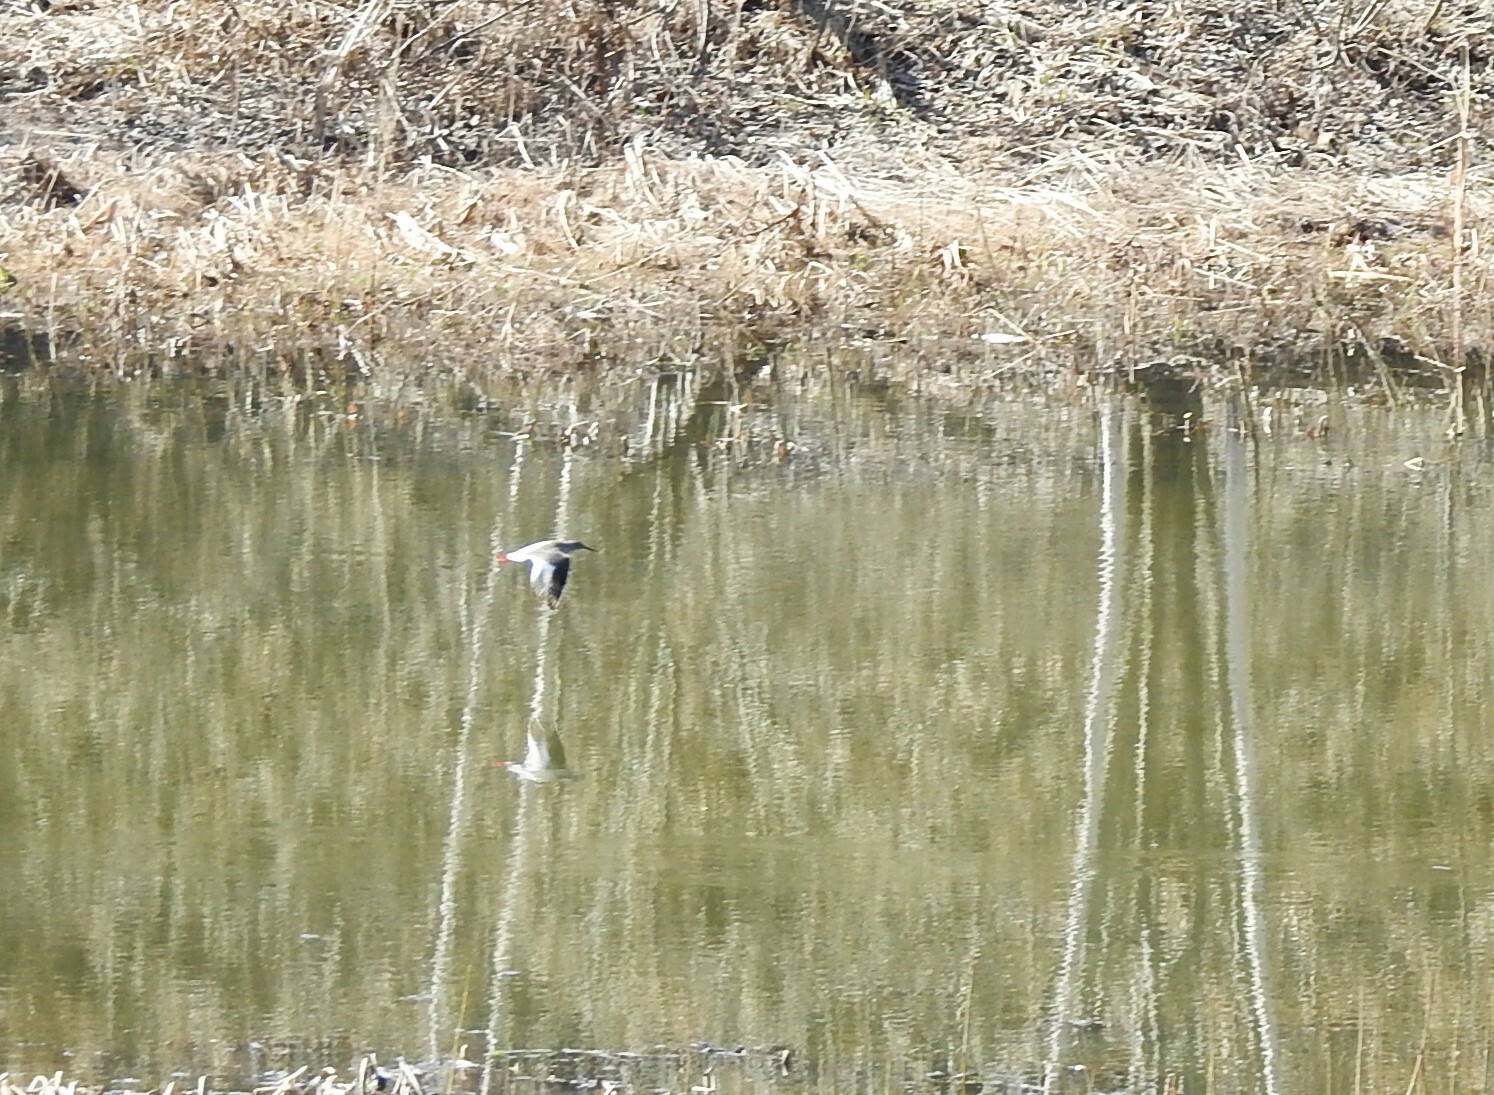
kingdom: Animalia
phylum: Chordata
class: Aves
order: Charadriiformes
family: Scolopacidae
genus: Tringa
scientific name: Tringa totanus
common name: Common redshank
